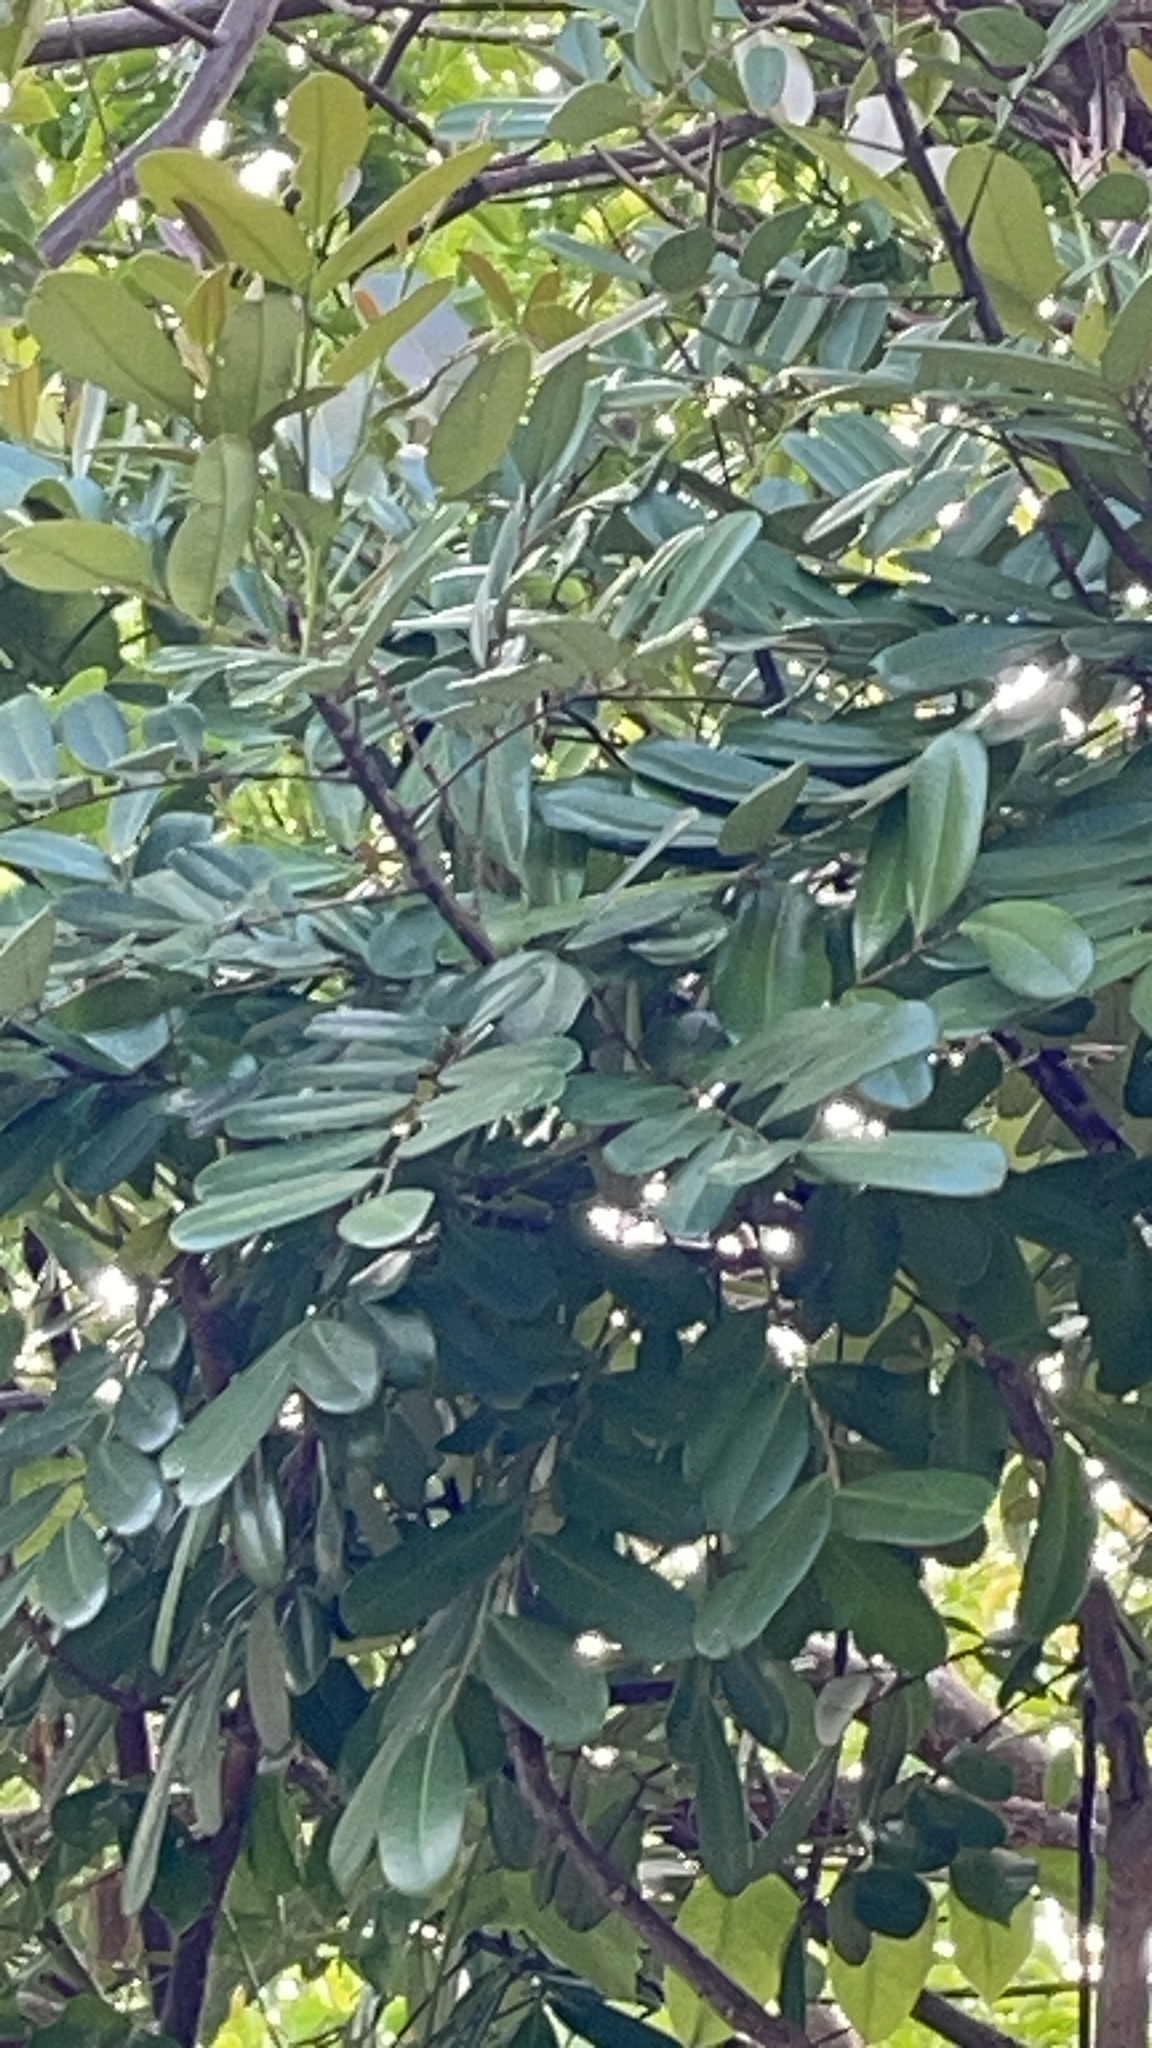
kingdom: Plantae
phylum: Tracheophyta
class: Magnoliopsida
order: Sapindales
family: Simaroubaceae
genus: Simarouba
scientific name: Simarouba amara
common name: Bitterwood
